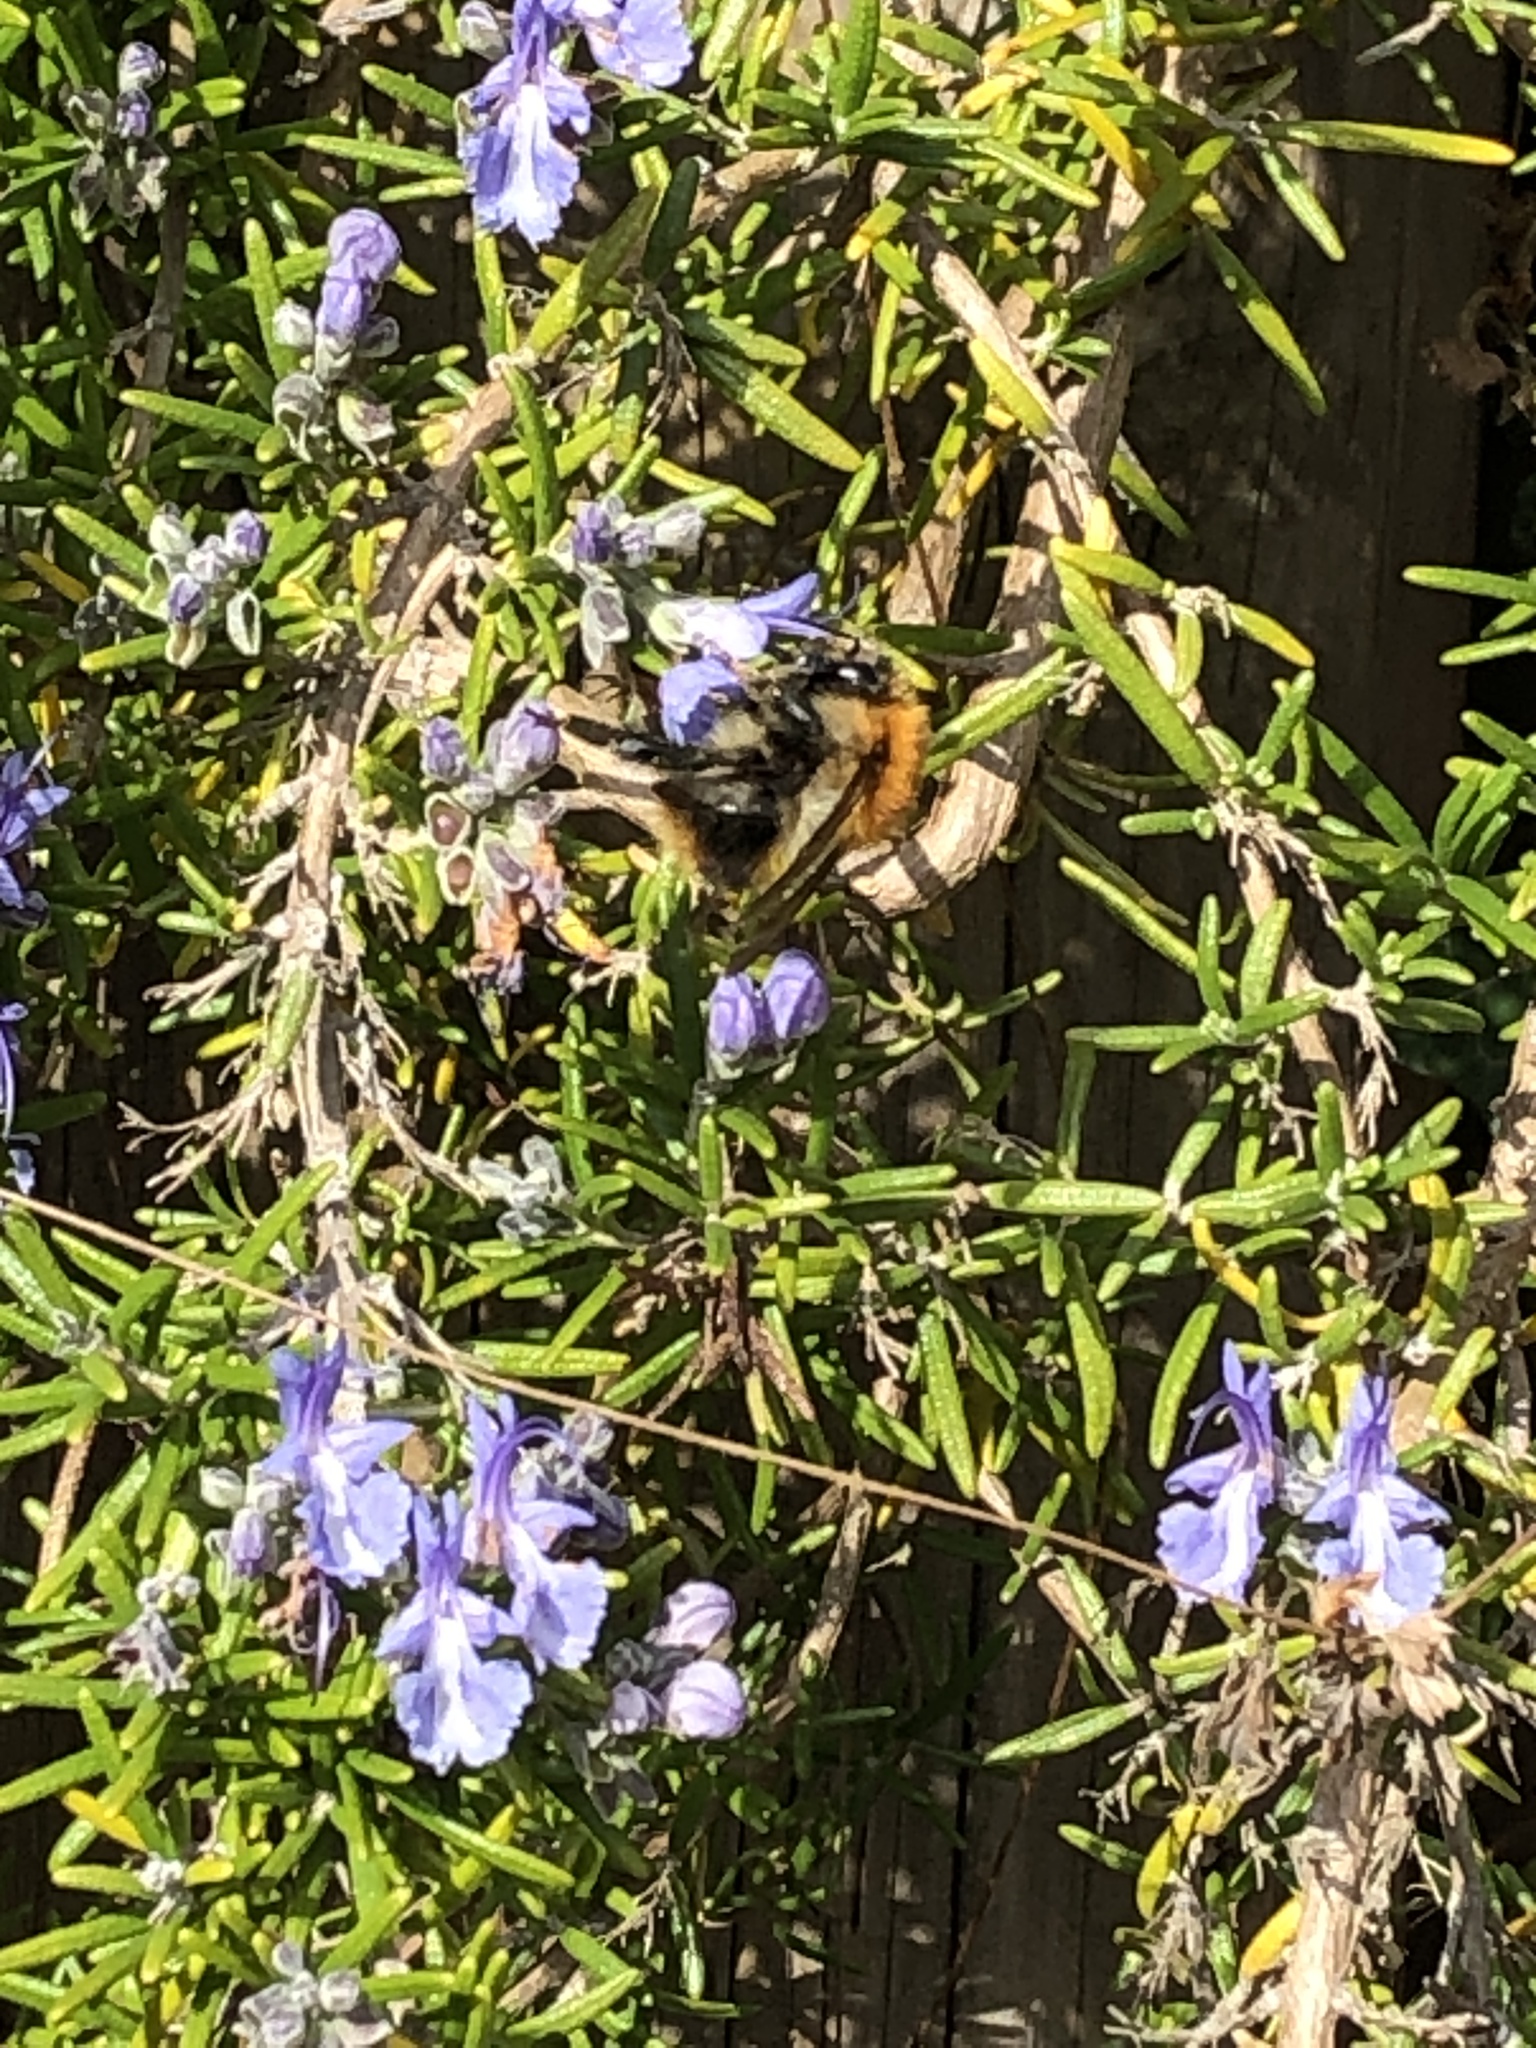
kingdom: Animalia
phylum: Arthropoda
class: Insecta
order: Hymenoptera
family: Apidae
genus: Bombus
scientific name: Bombus pascuorum
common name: Common carder bee
